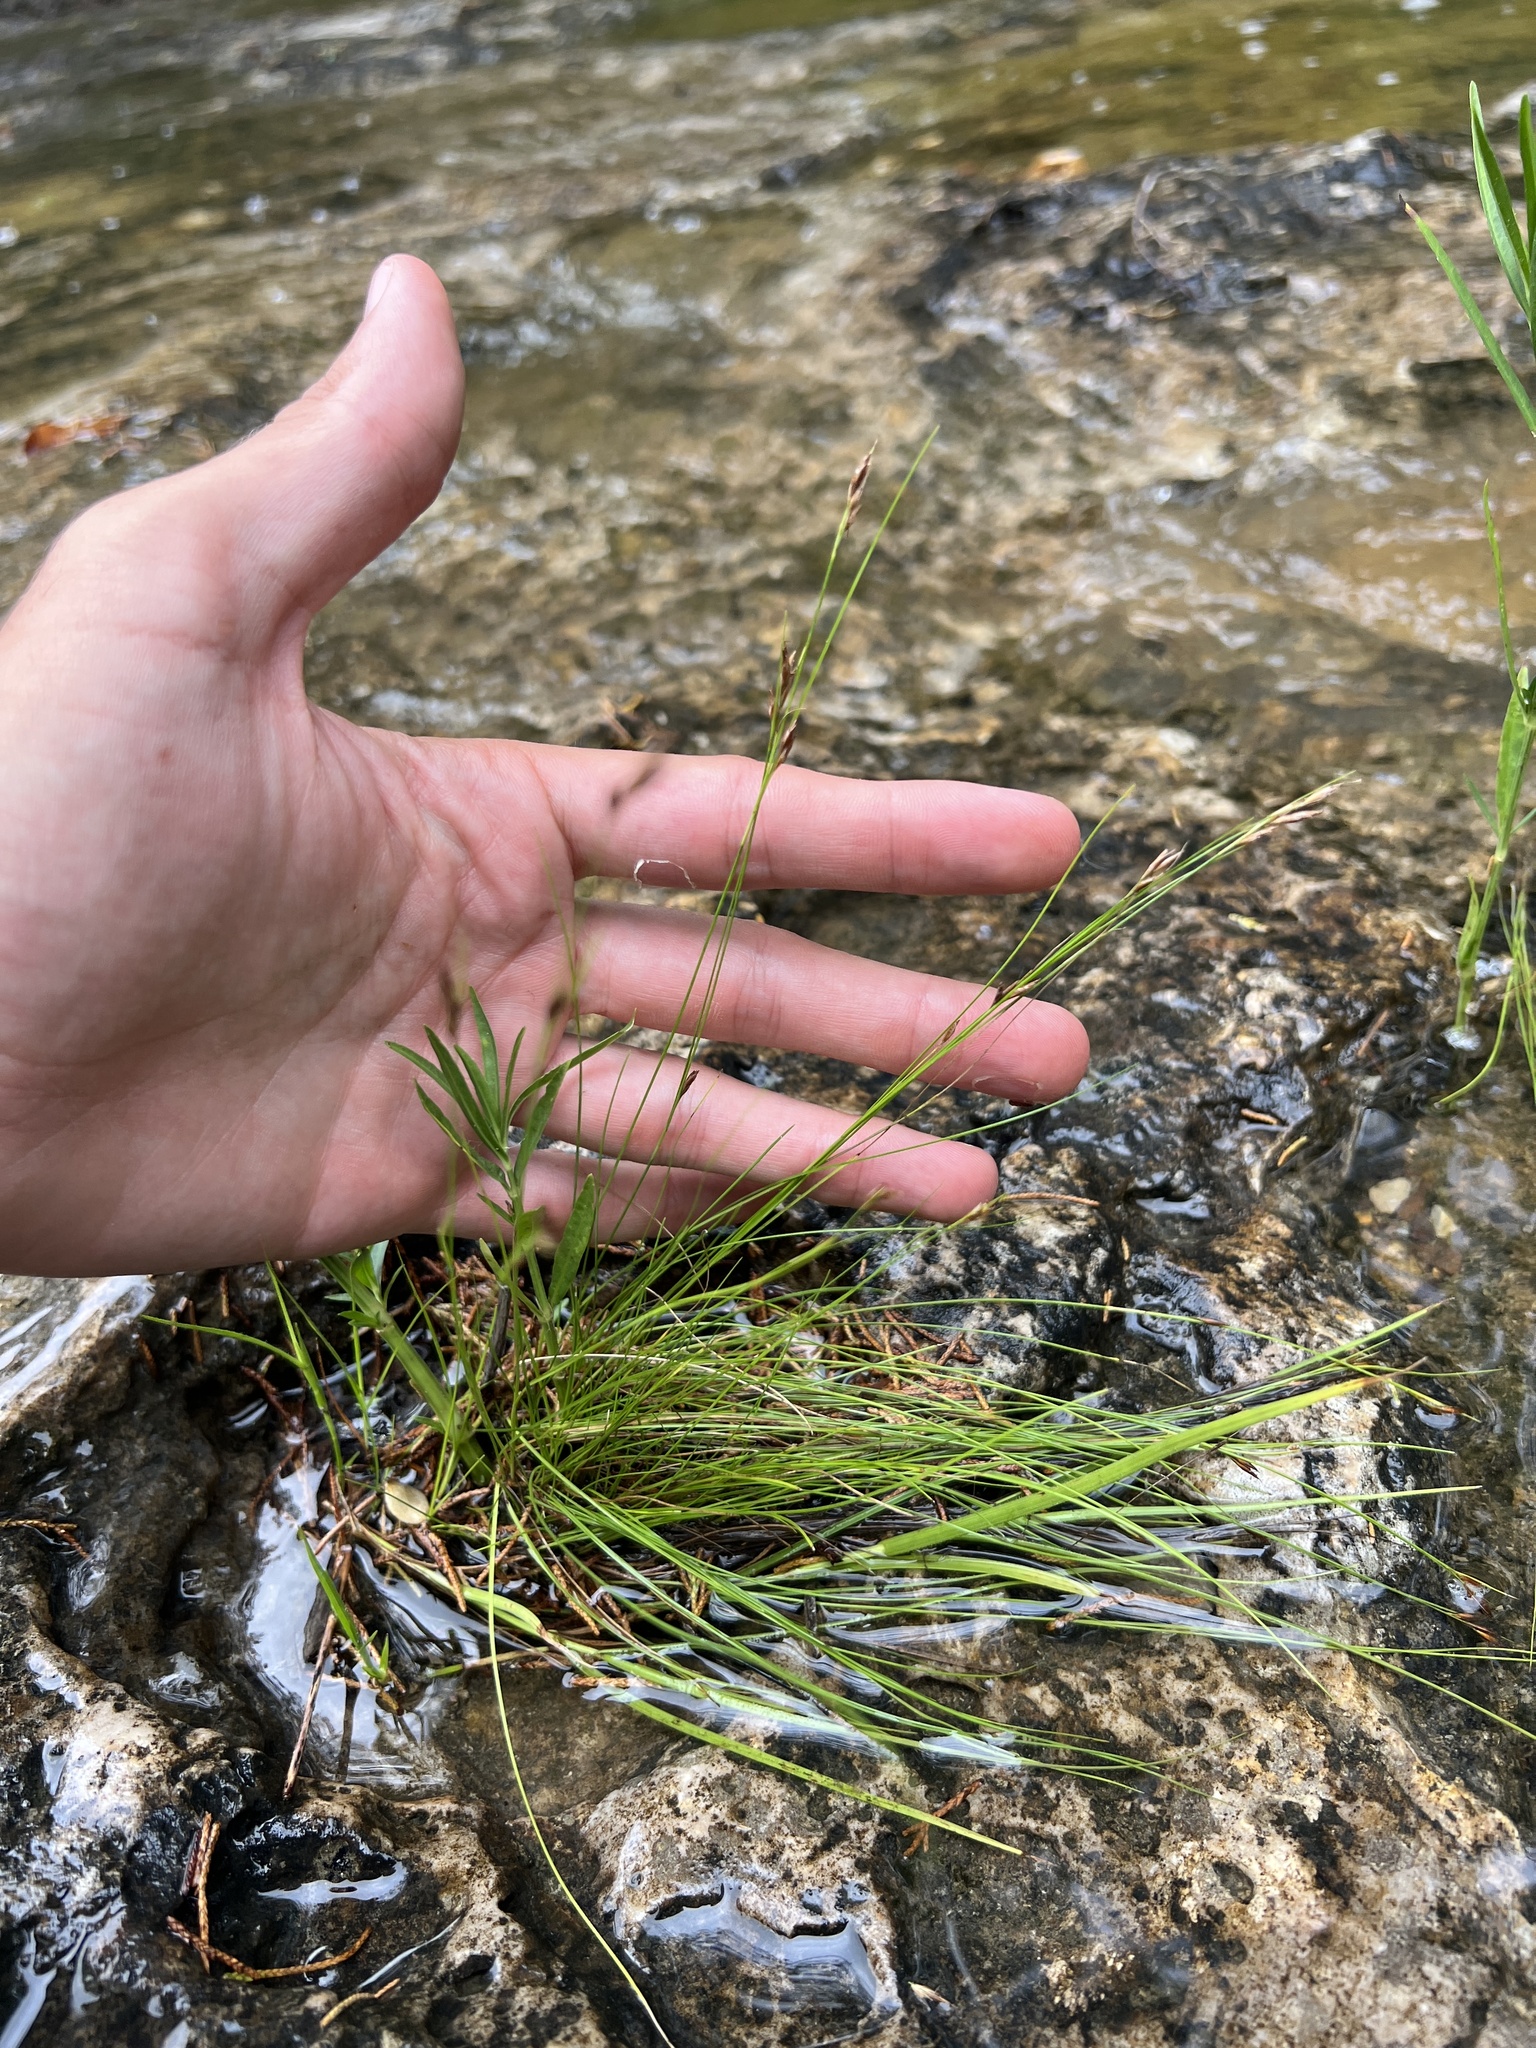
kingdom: Plantae
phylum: Tracheophyta
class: Liliopsida
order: Poales
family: Cyperaceae
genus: Rhynchospora
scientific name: Rhynchospora capillacea
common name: Capillary beakrush
